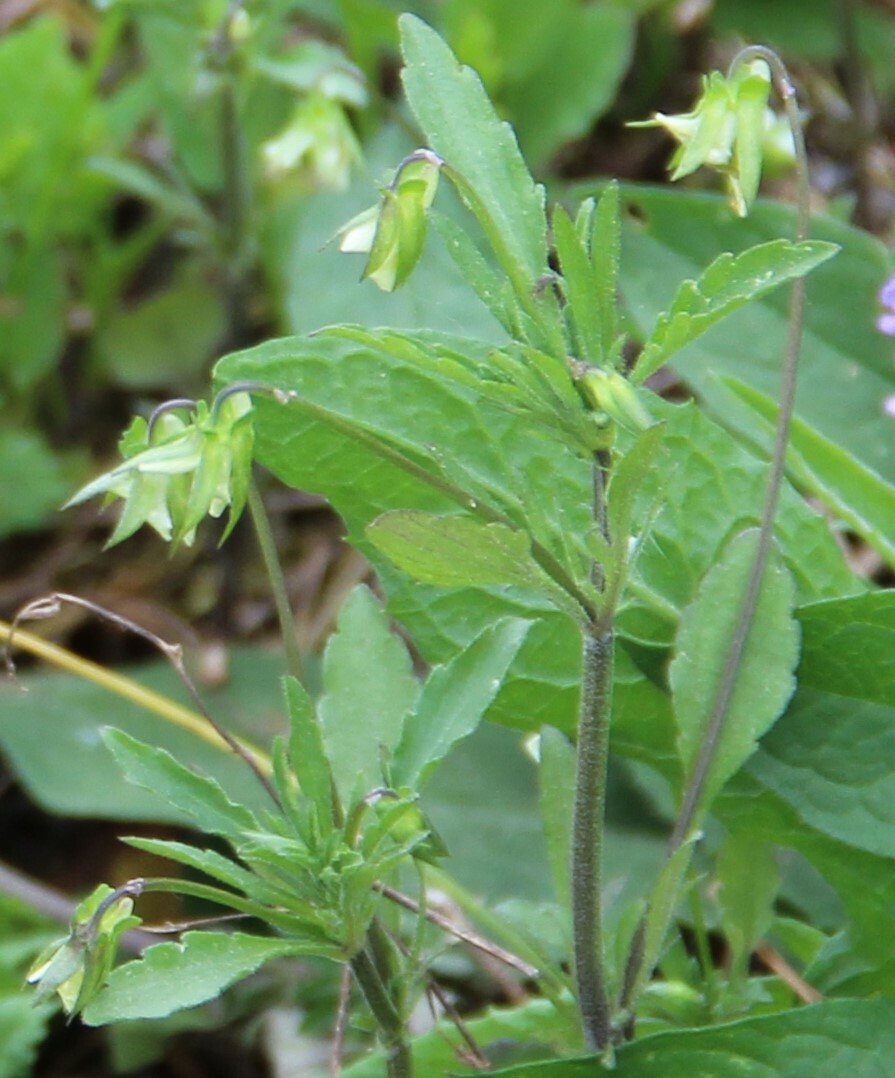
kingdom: Plantae
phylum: Tracheophyta
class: Magnoliopsida
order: Malpighiales
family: Violaceae
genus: Viola
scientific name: Viola arvensis
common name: Field pansy
